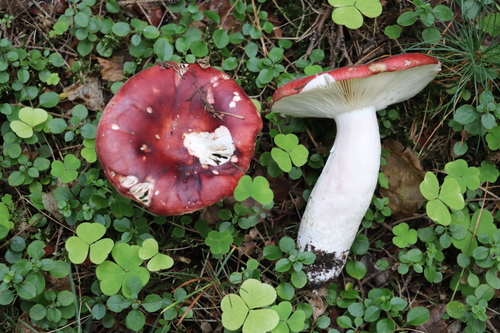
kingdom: Fungi
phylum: Basidiomycota
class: Agaricomycetes
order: Russulales
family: Russulaceae
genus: Russula
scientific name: Russula
